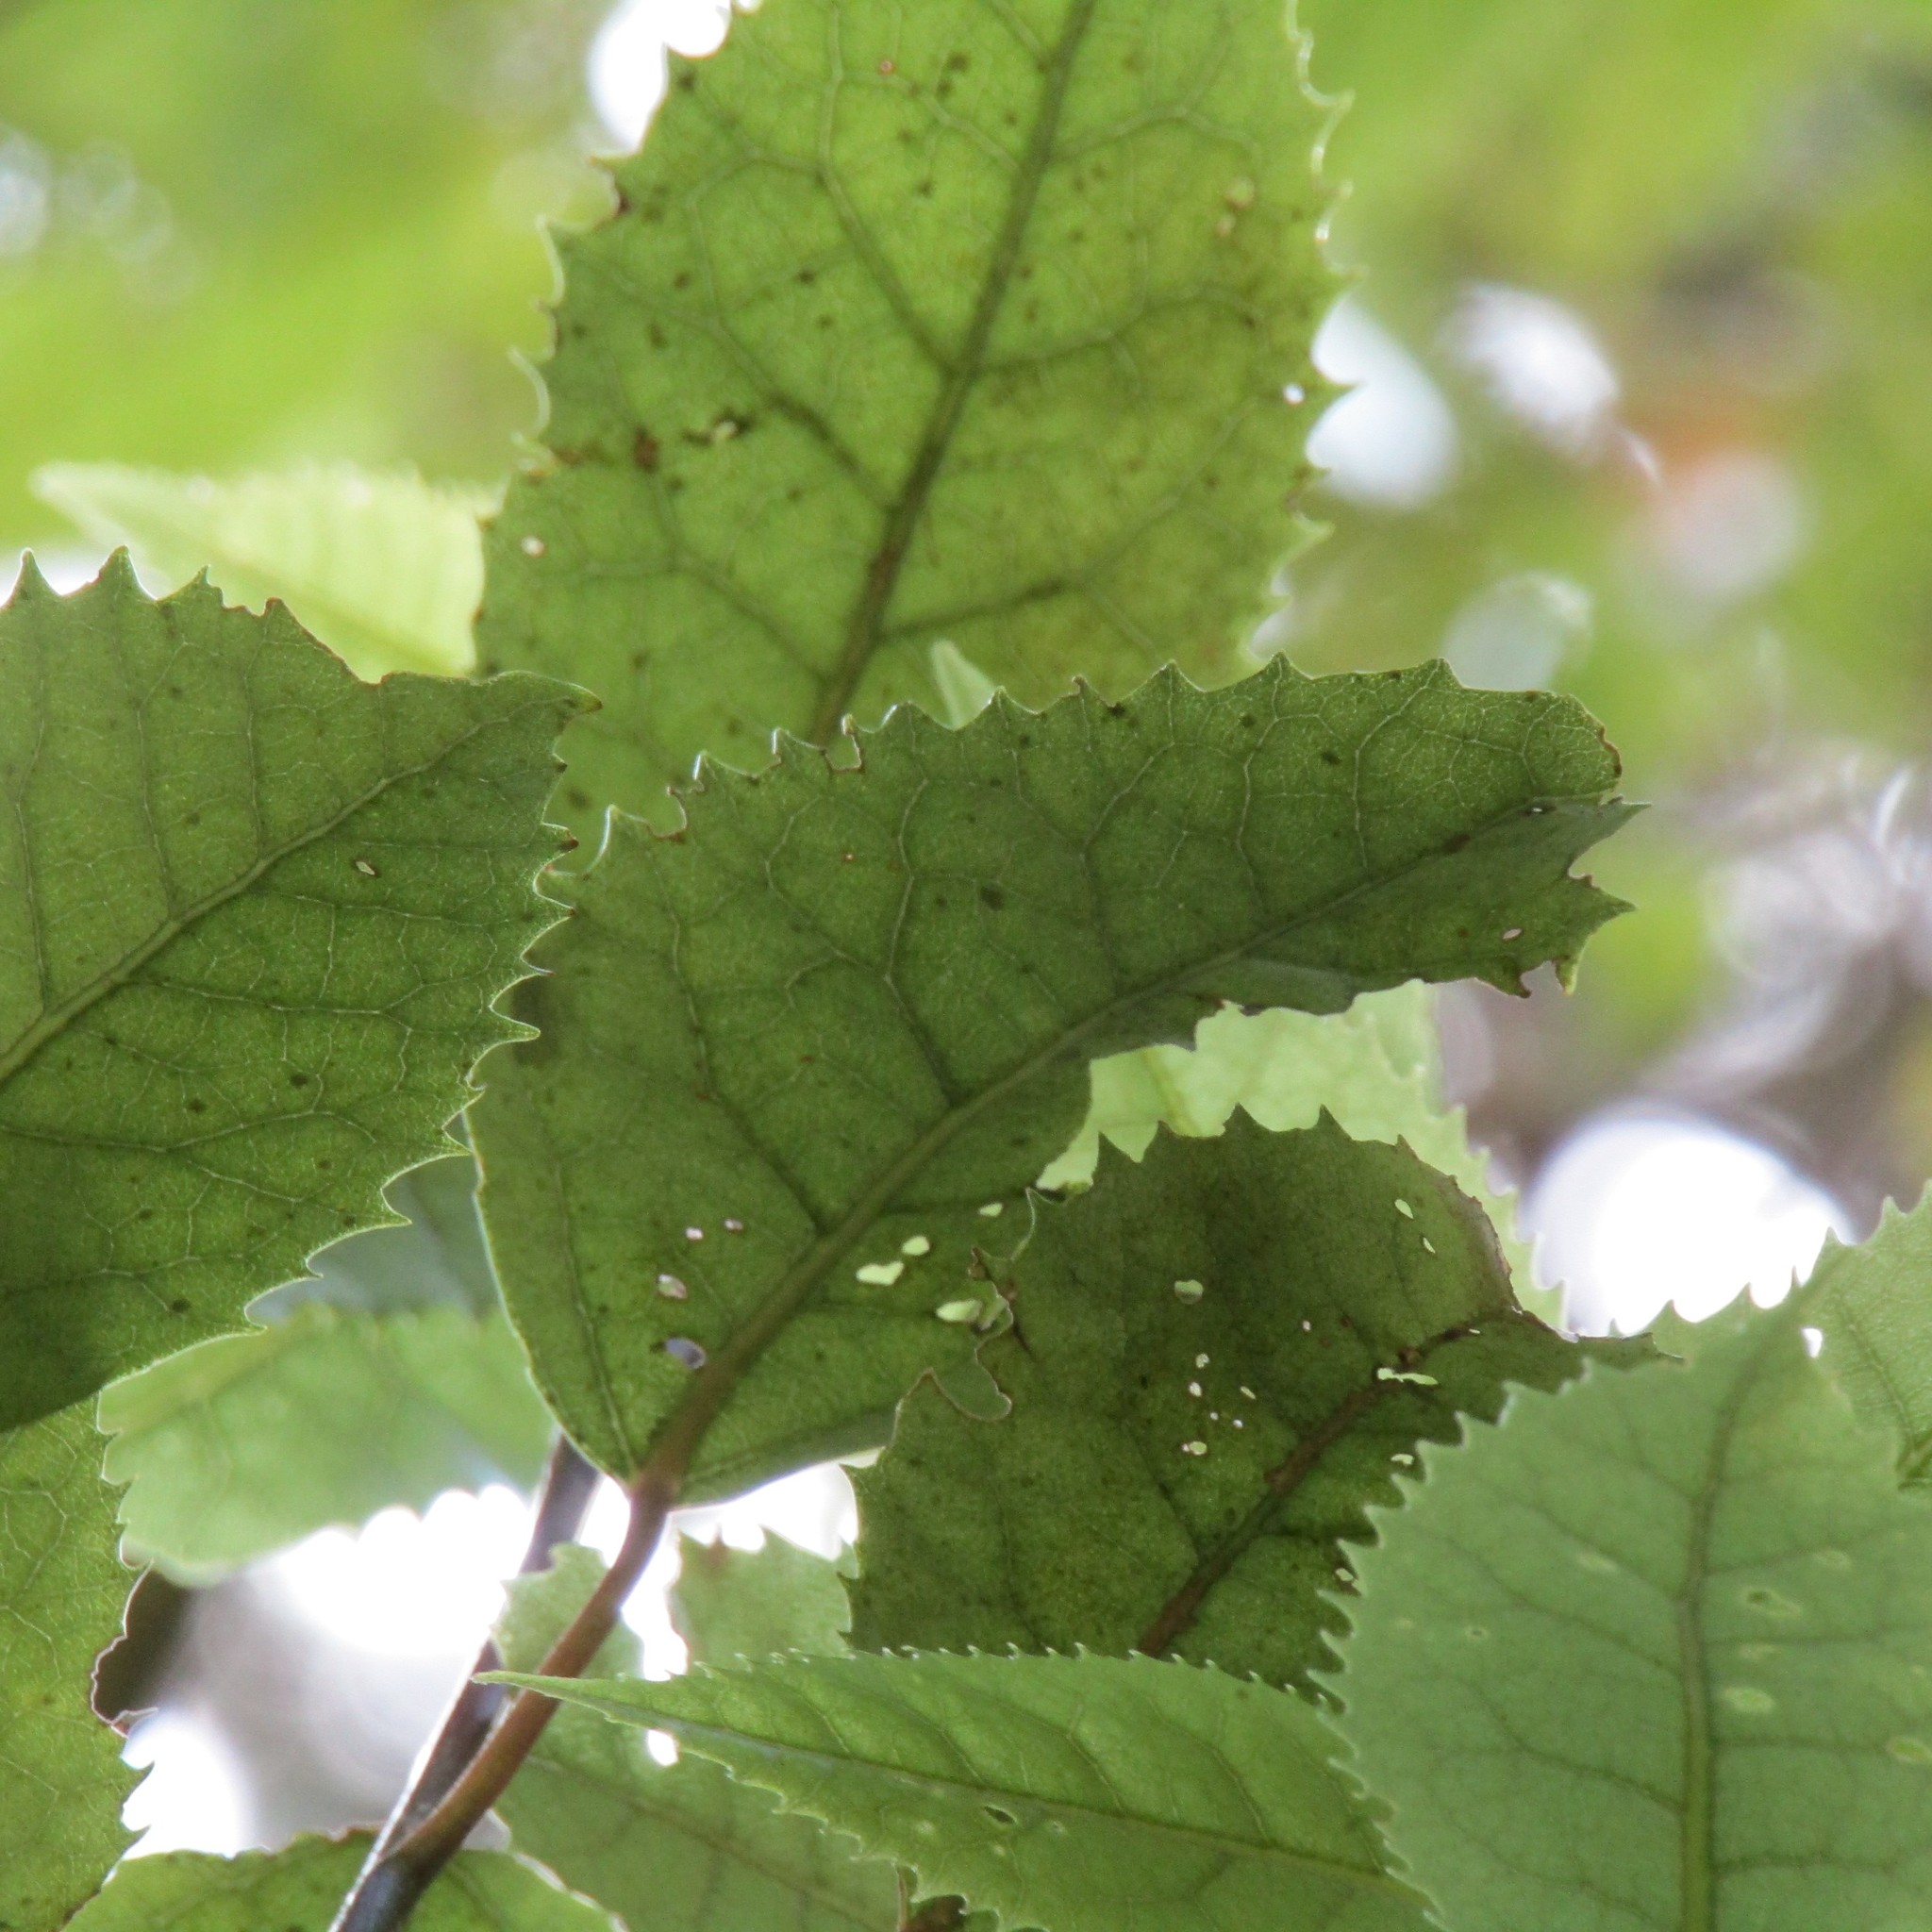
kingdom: Plantae
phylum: Tracheophyta
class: Magnoliopsida
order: Malvales
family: Malvaceae
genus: Hoheria
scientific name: Hoheria populnea
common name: Lacebark
